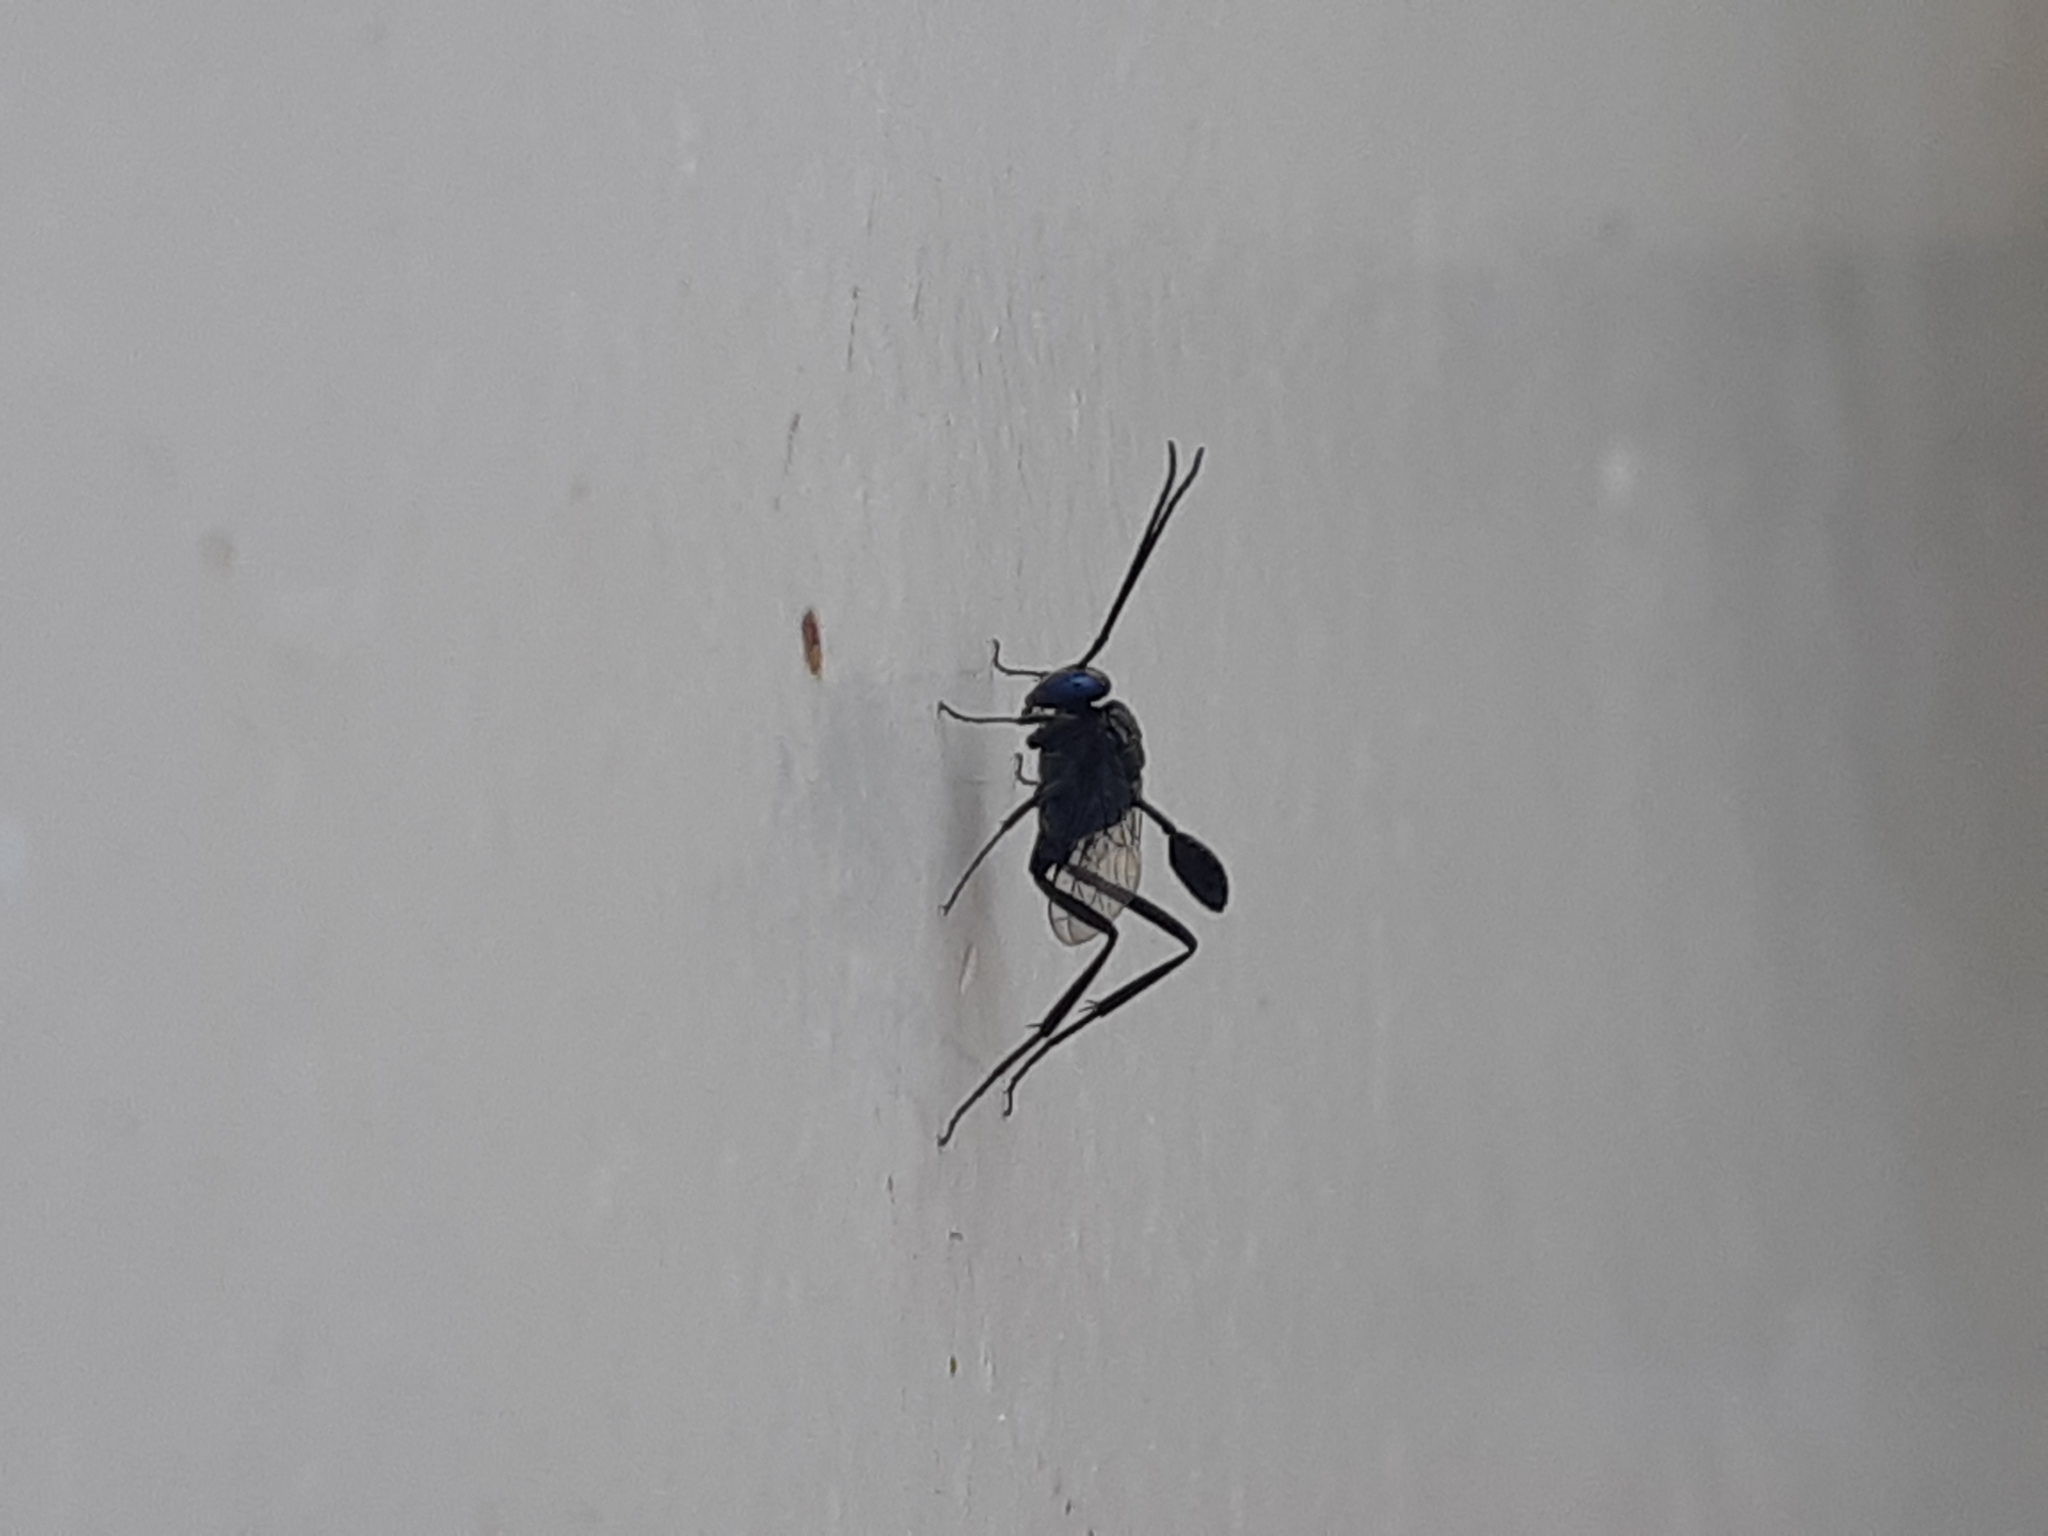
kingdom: Animalia
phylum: Arthropoda
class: Insecta
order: Hymenoptera
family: Evaniidae
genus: Evania
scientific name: Evania appendigaster
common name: Ensign wasp
